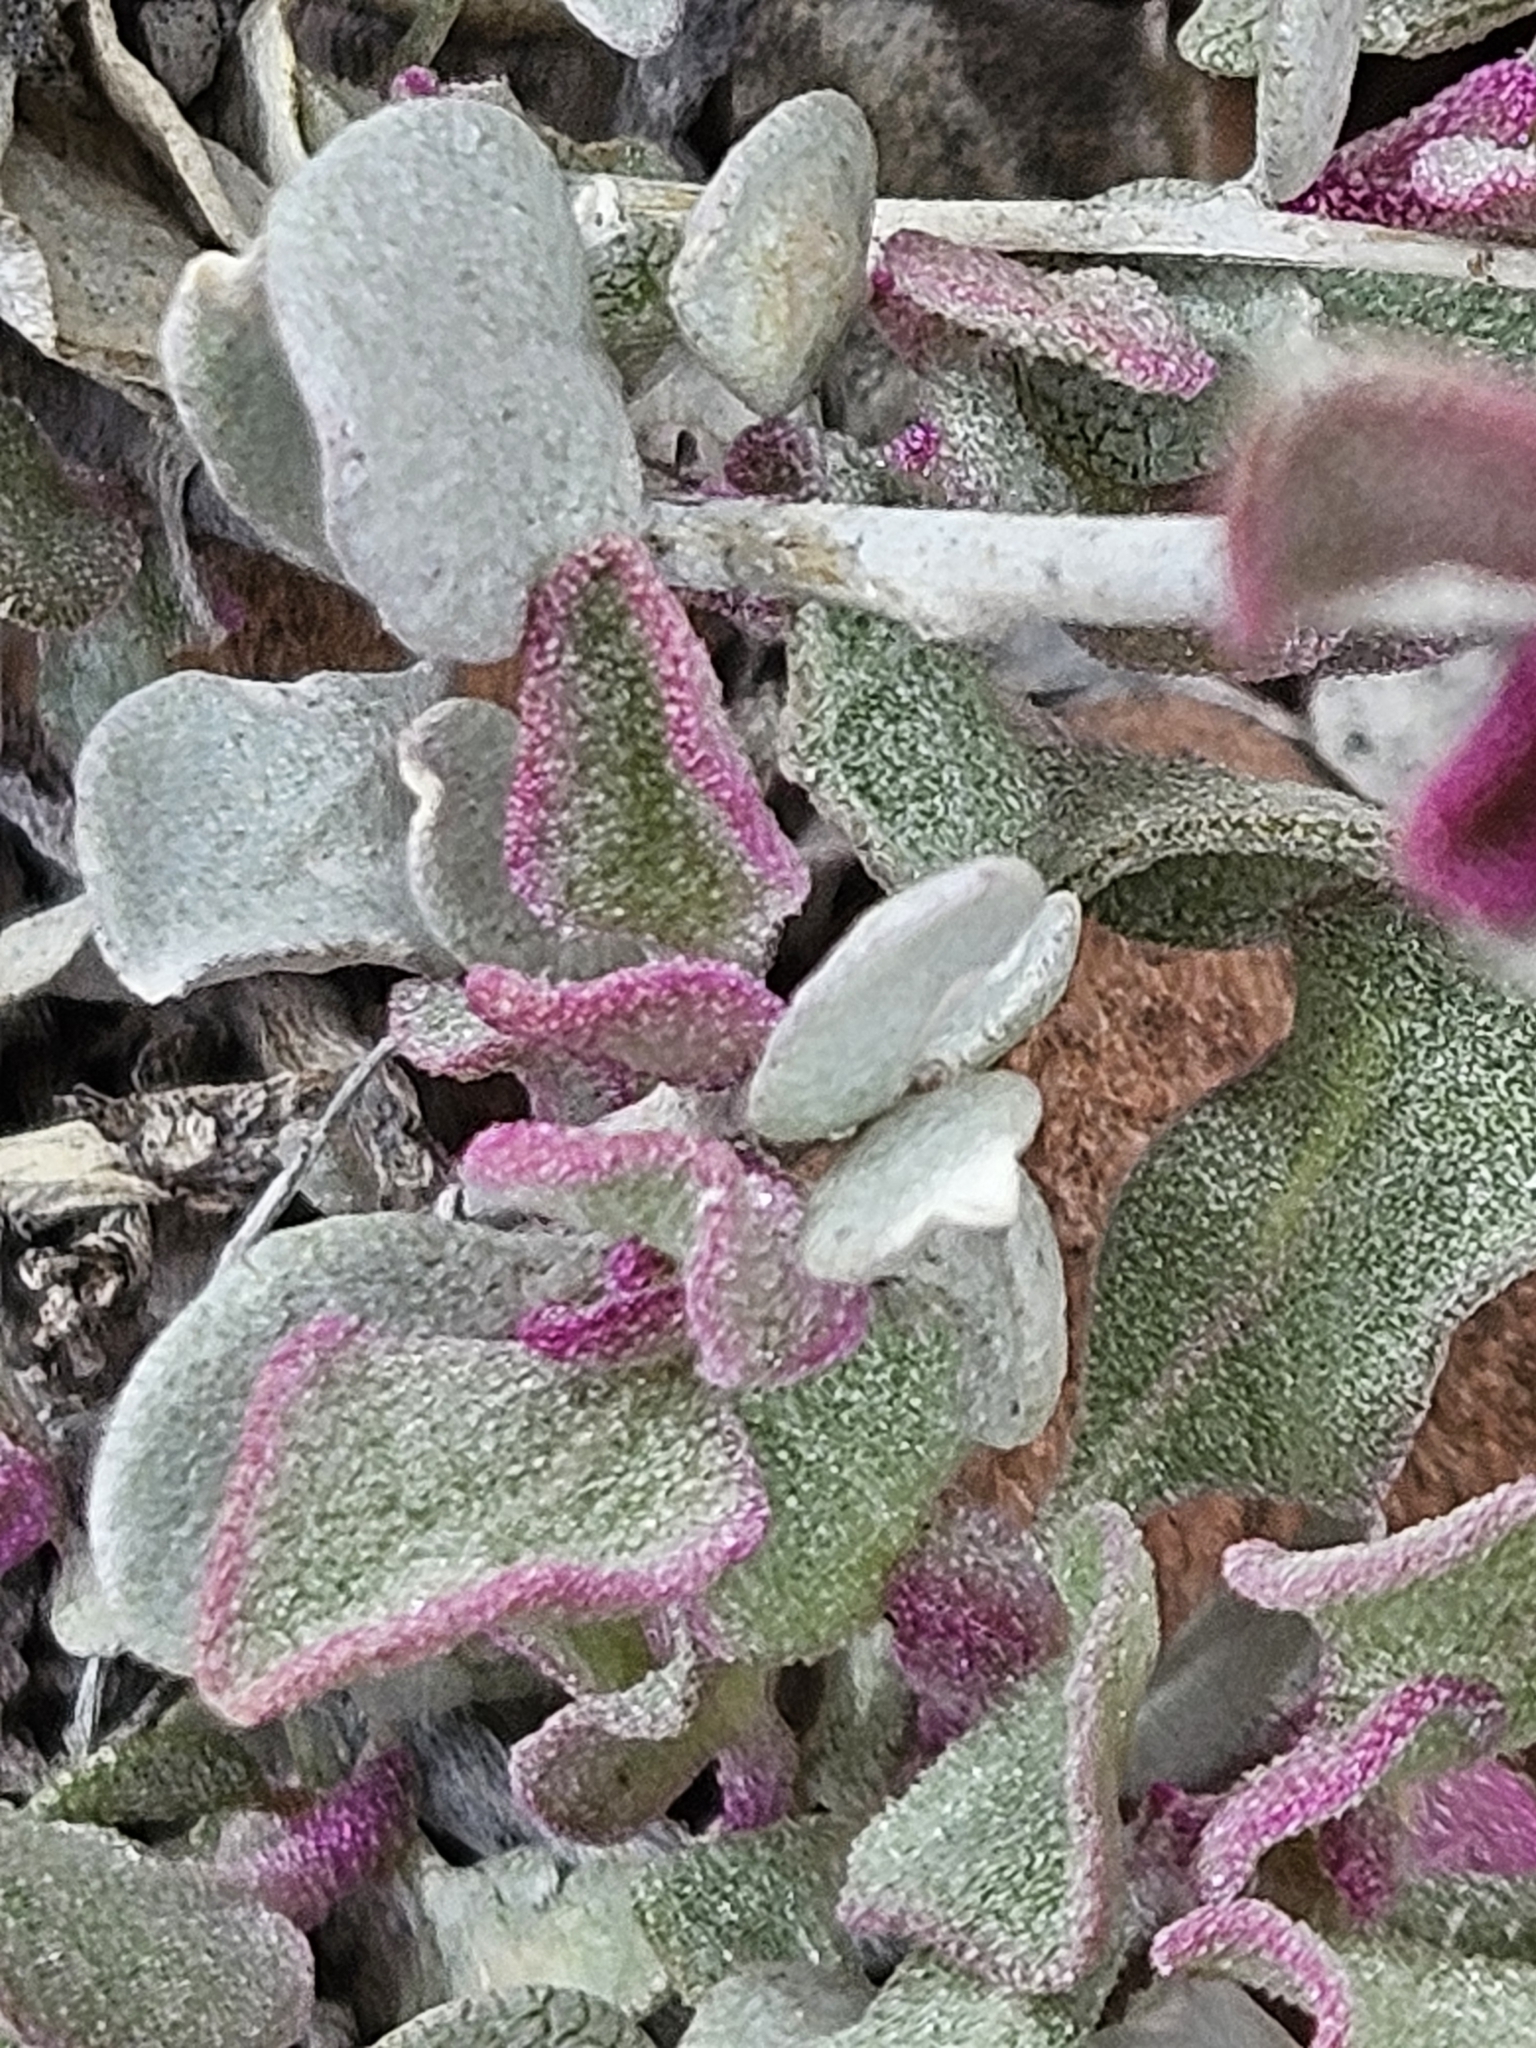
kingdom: Plantae
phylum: Tracheophyta
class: Magnoliopsida
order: Caryophyllales
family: Amaranthaceae
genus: Atriplex
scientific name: Atriplex confertifolia
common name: Shadscale
